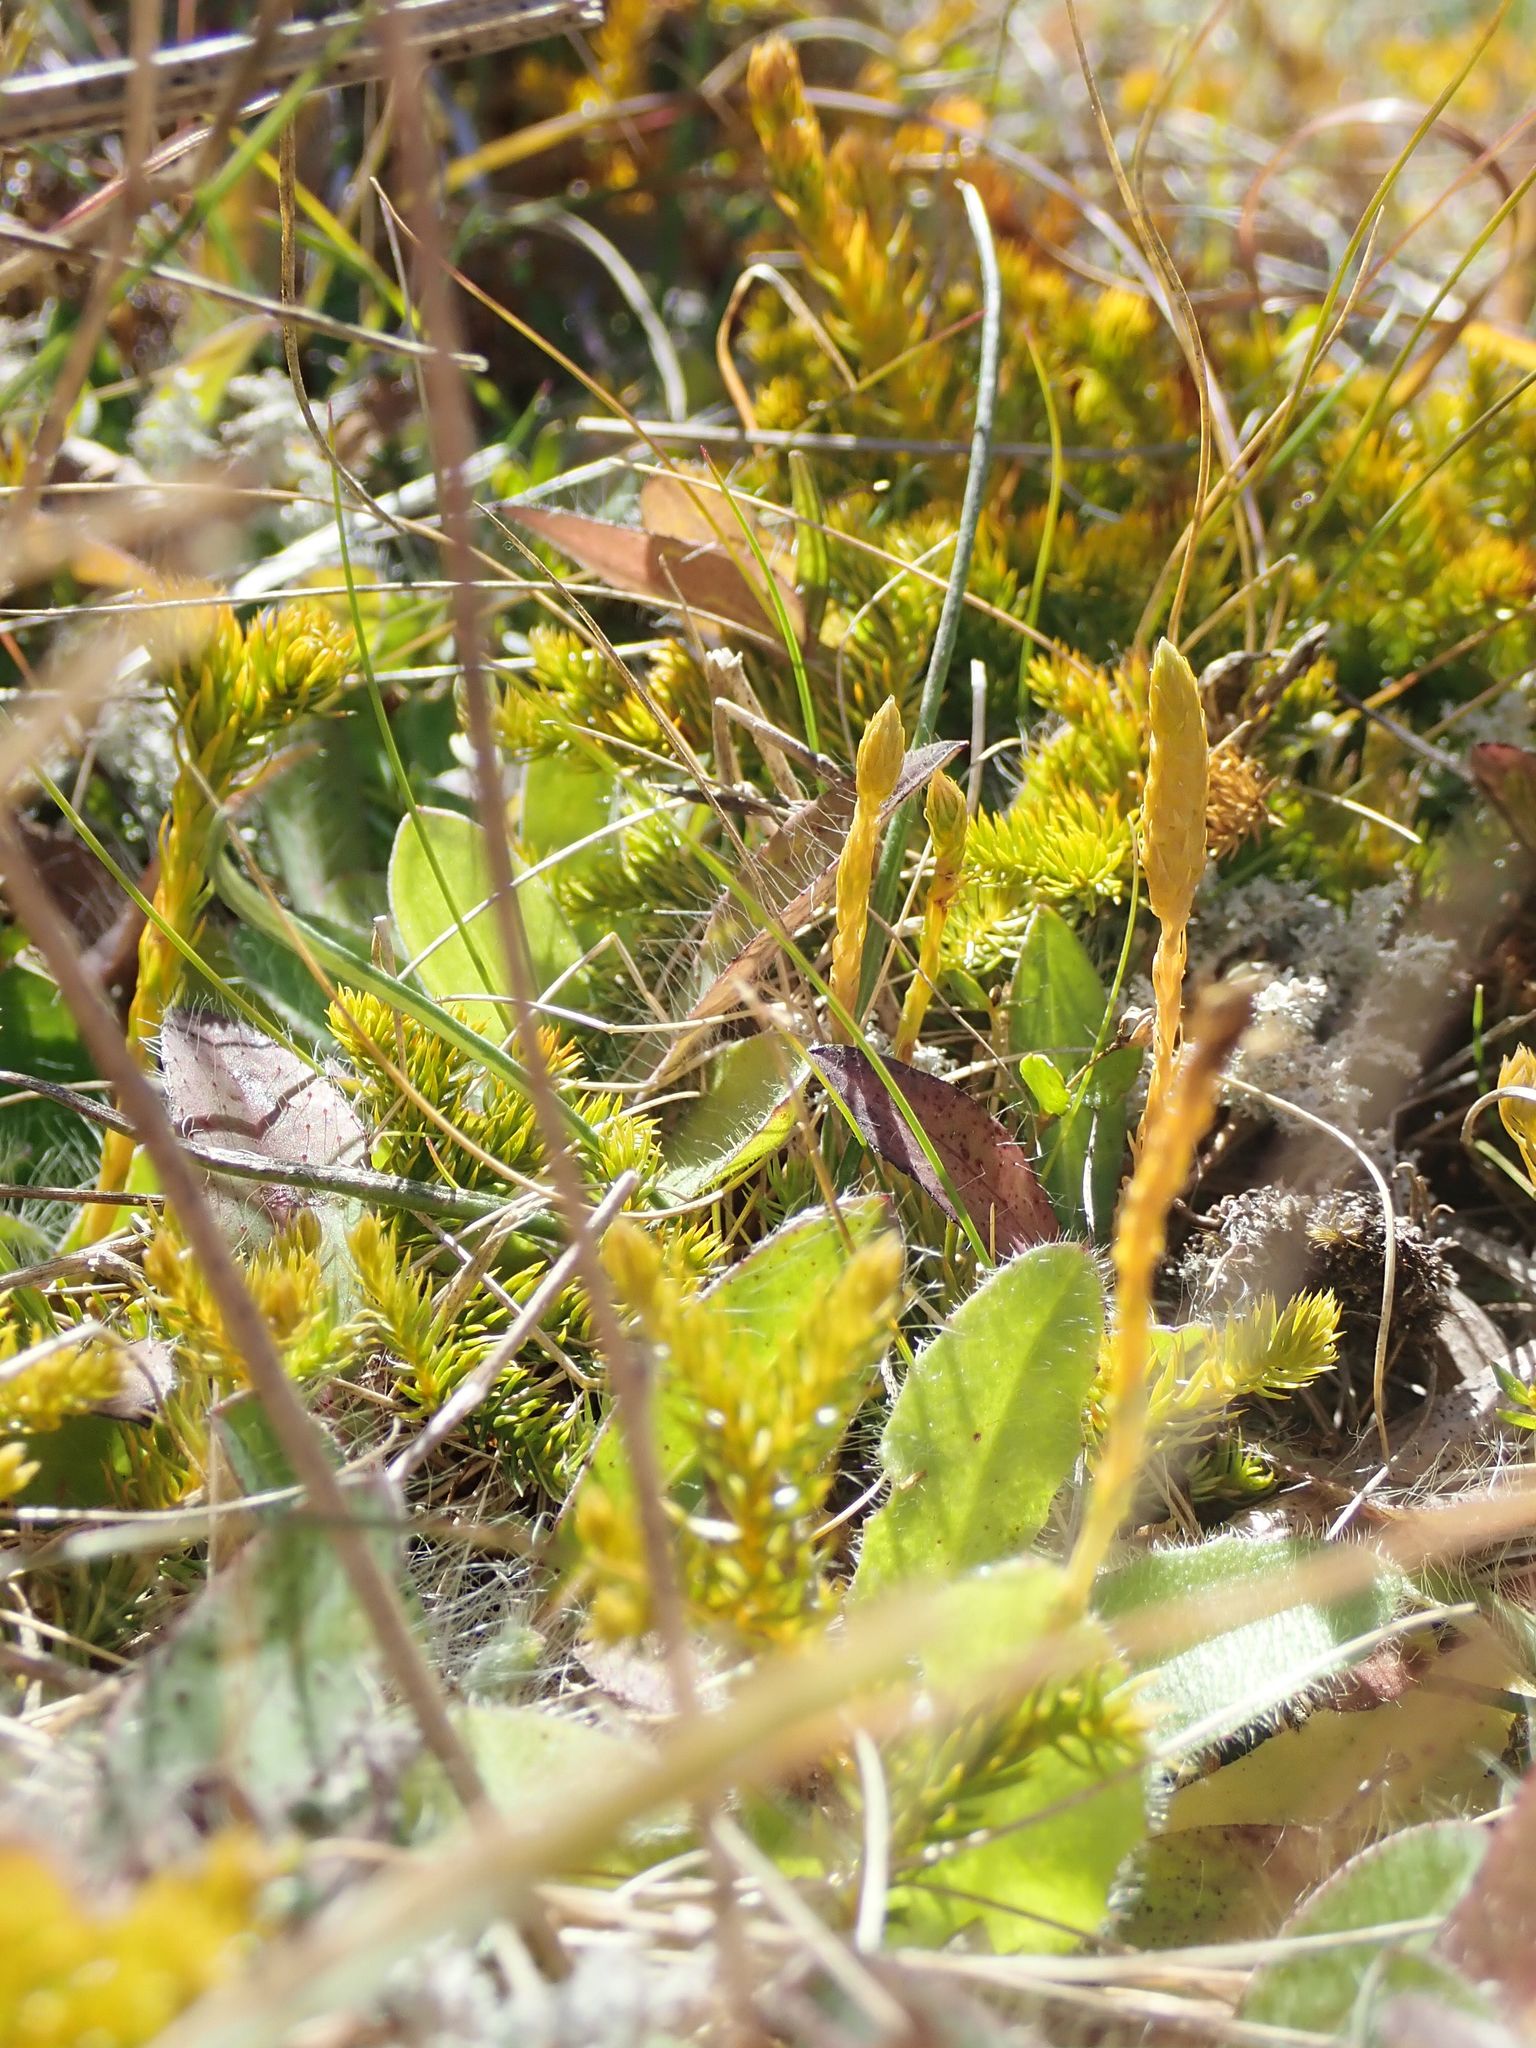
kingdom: Plantae
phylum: Tracheophyta
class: Lycopodiopsida
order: Lycopodiales
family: Lycopodiaceae
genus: Austrolycopodium
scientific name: Austrolycopodium fastigiatum
